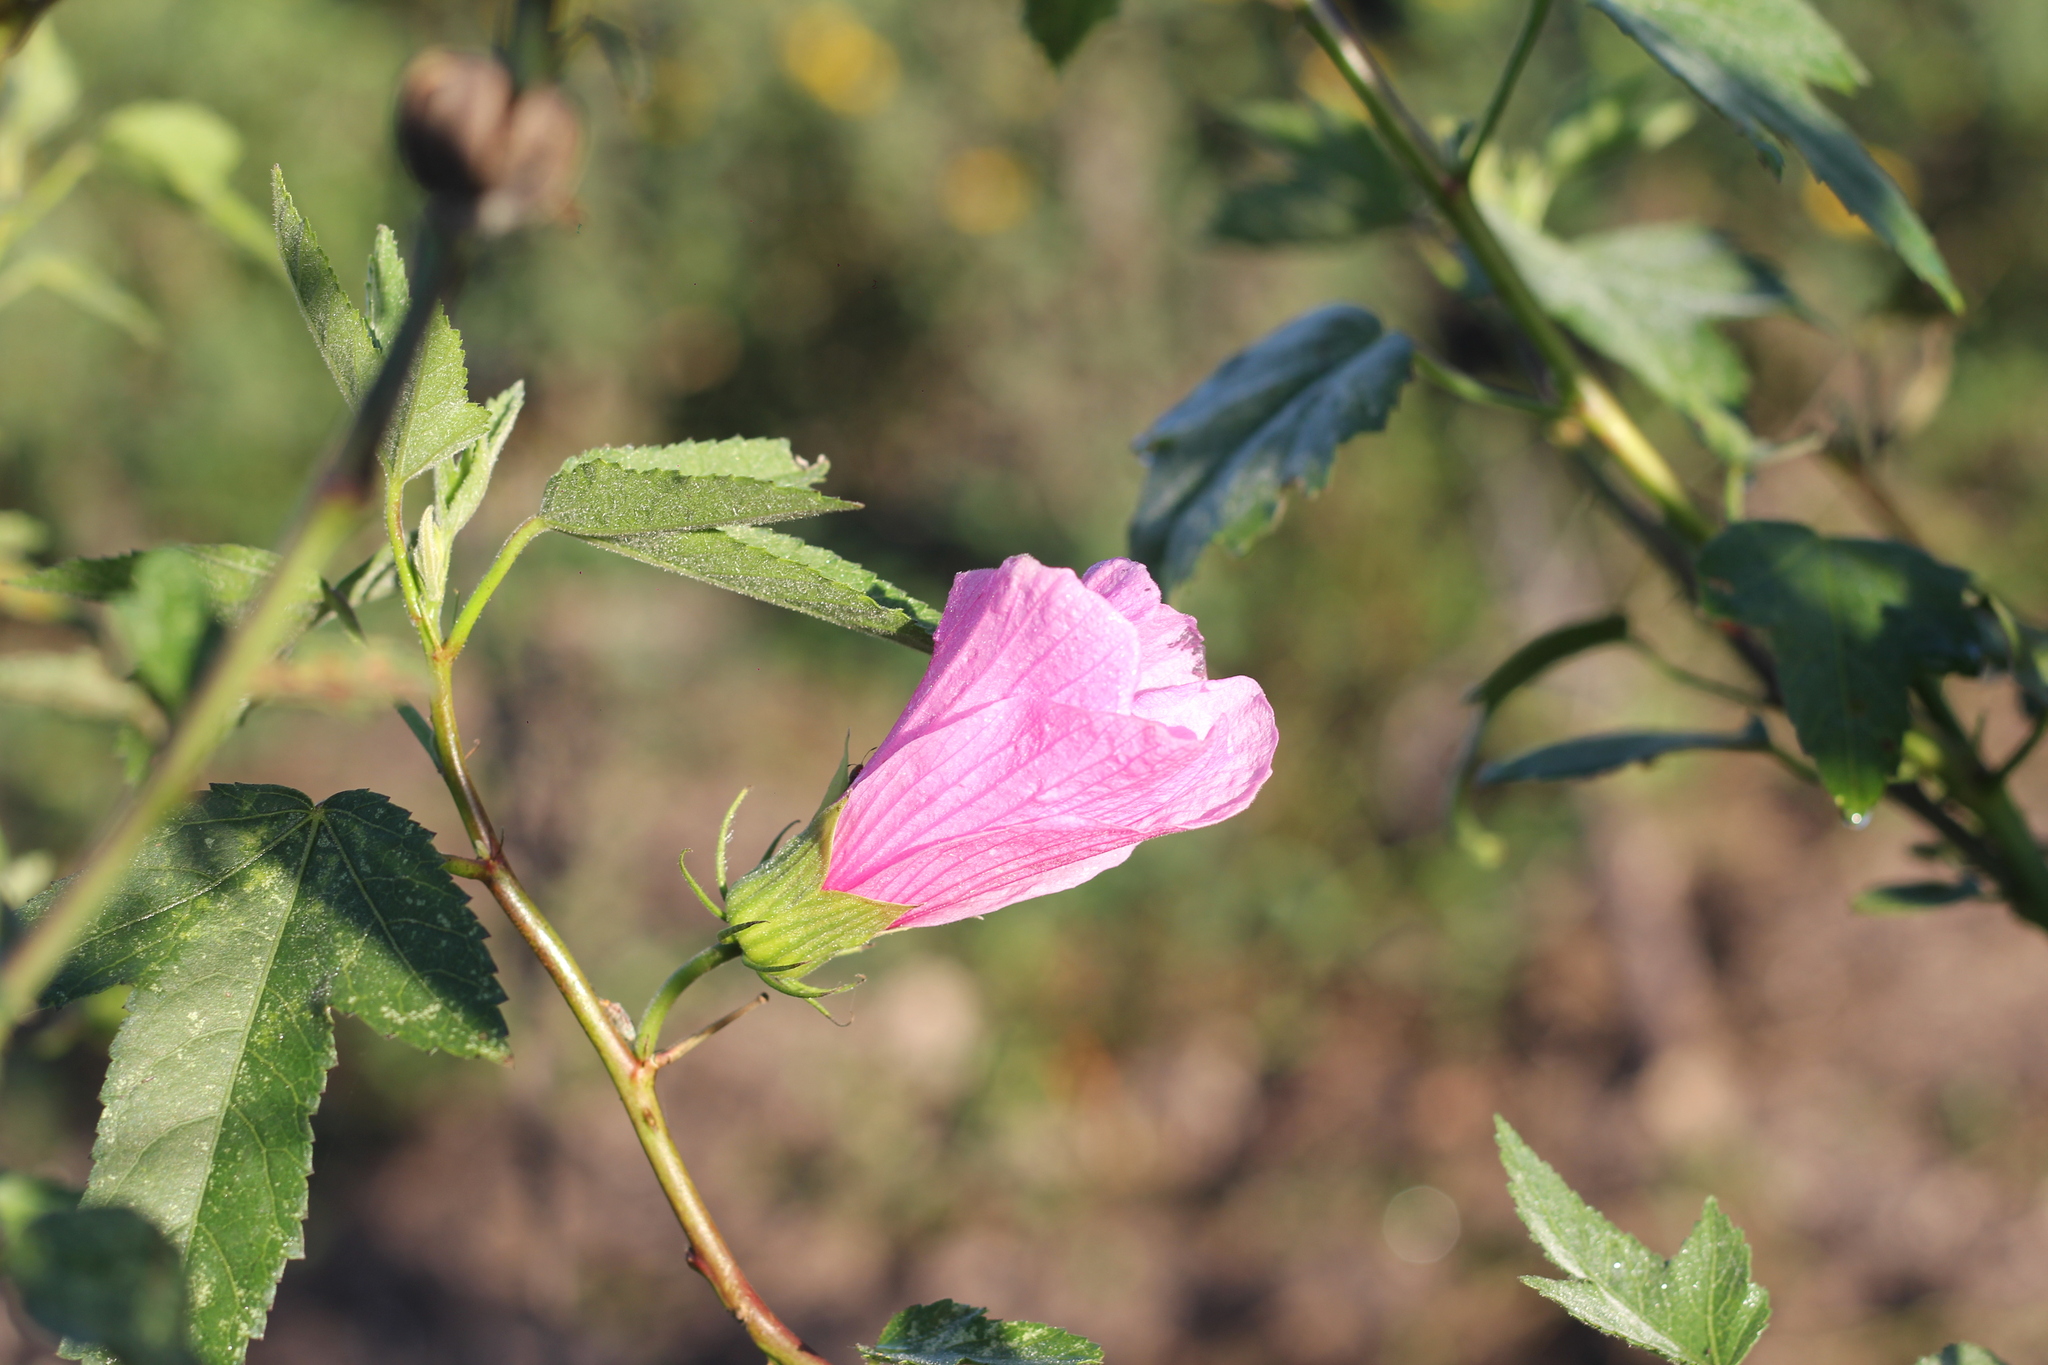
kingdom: Plantae
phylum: Tracheophyta
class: Magnoliopsida
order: Malvales
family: Malvaceae
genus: Hibiscus
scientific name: Hibiscus striatus
